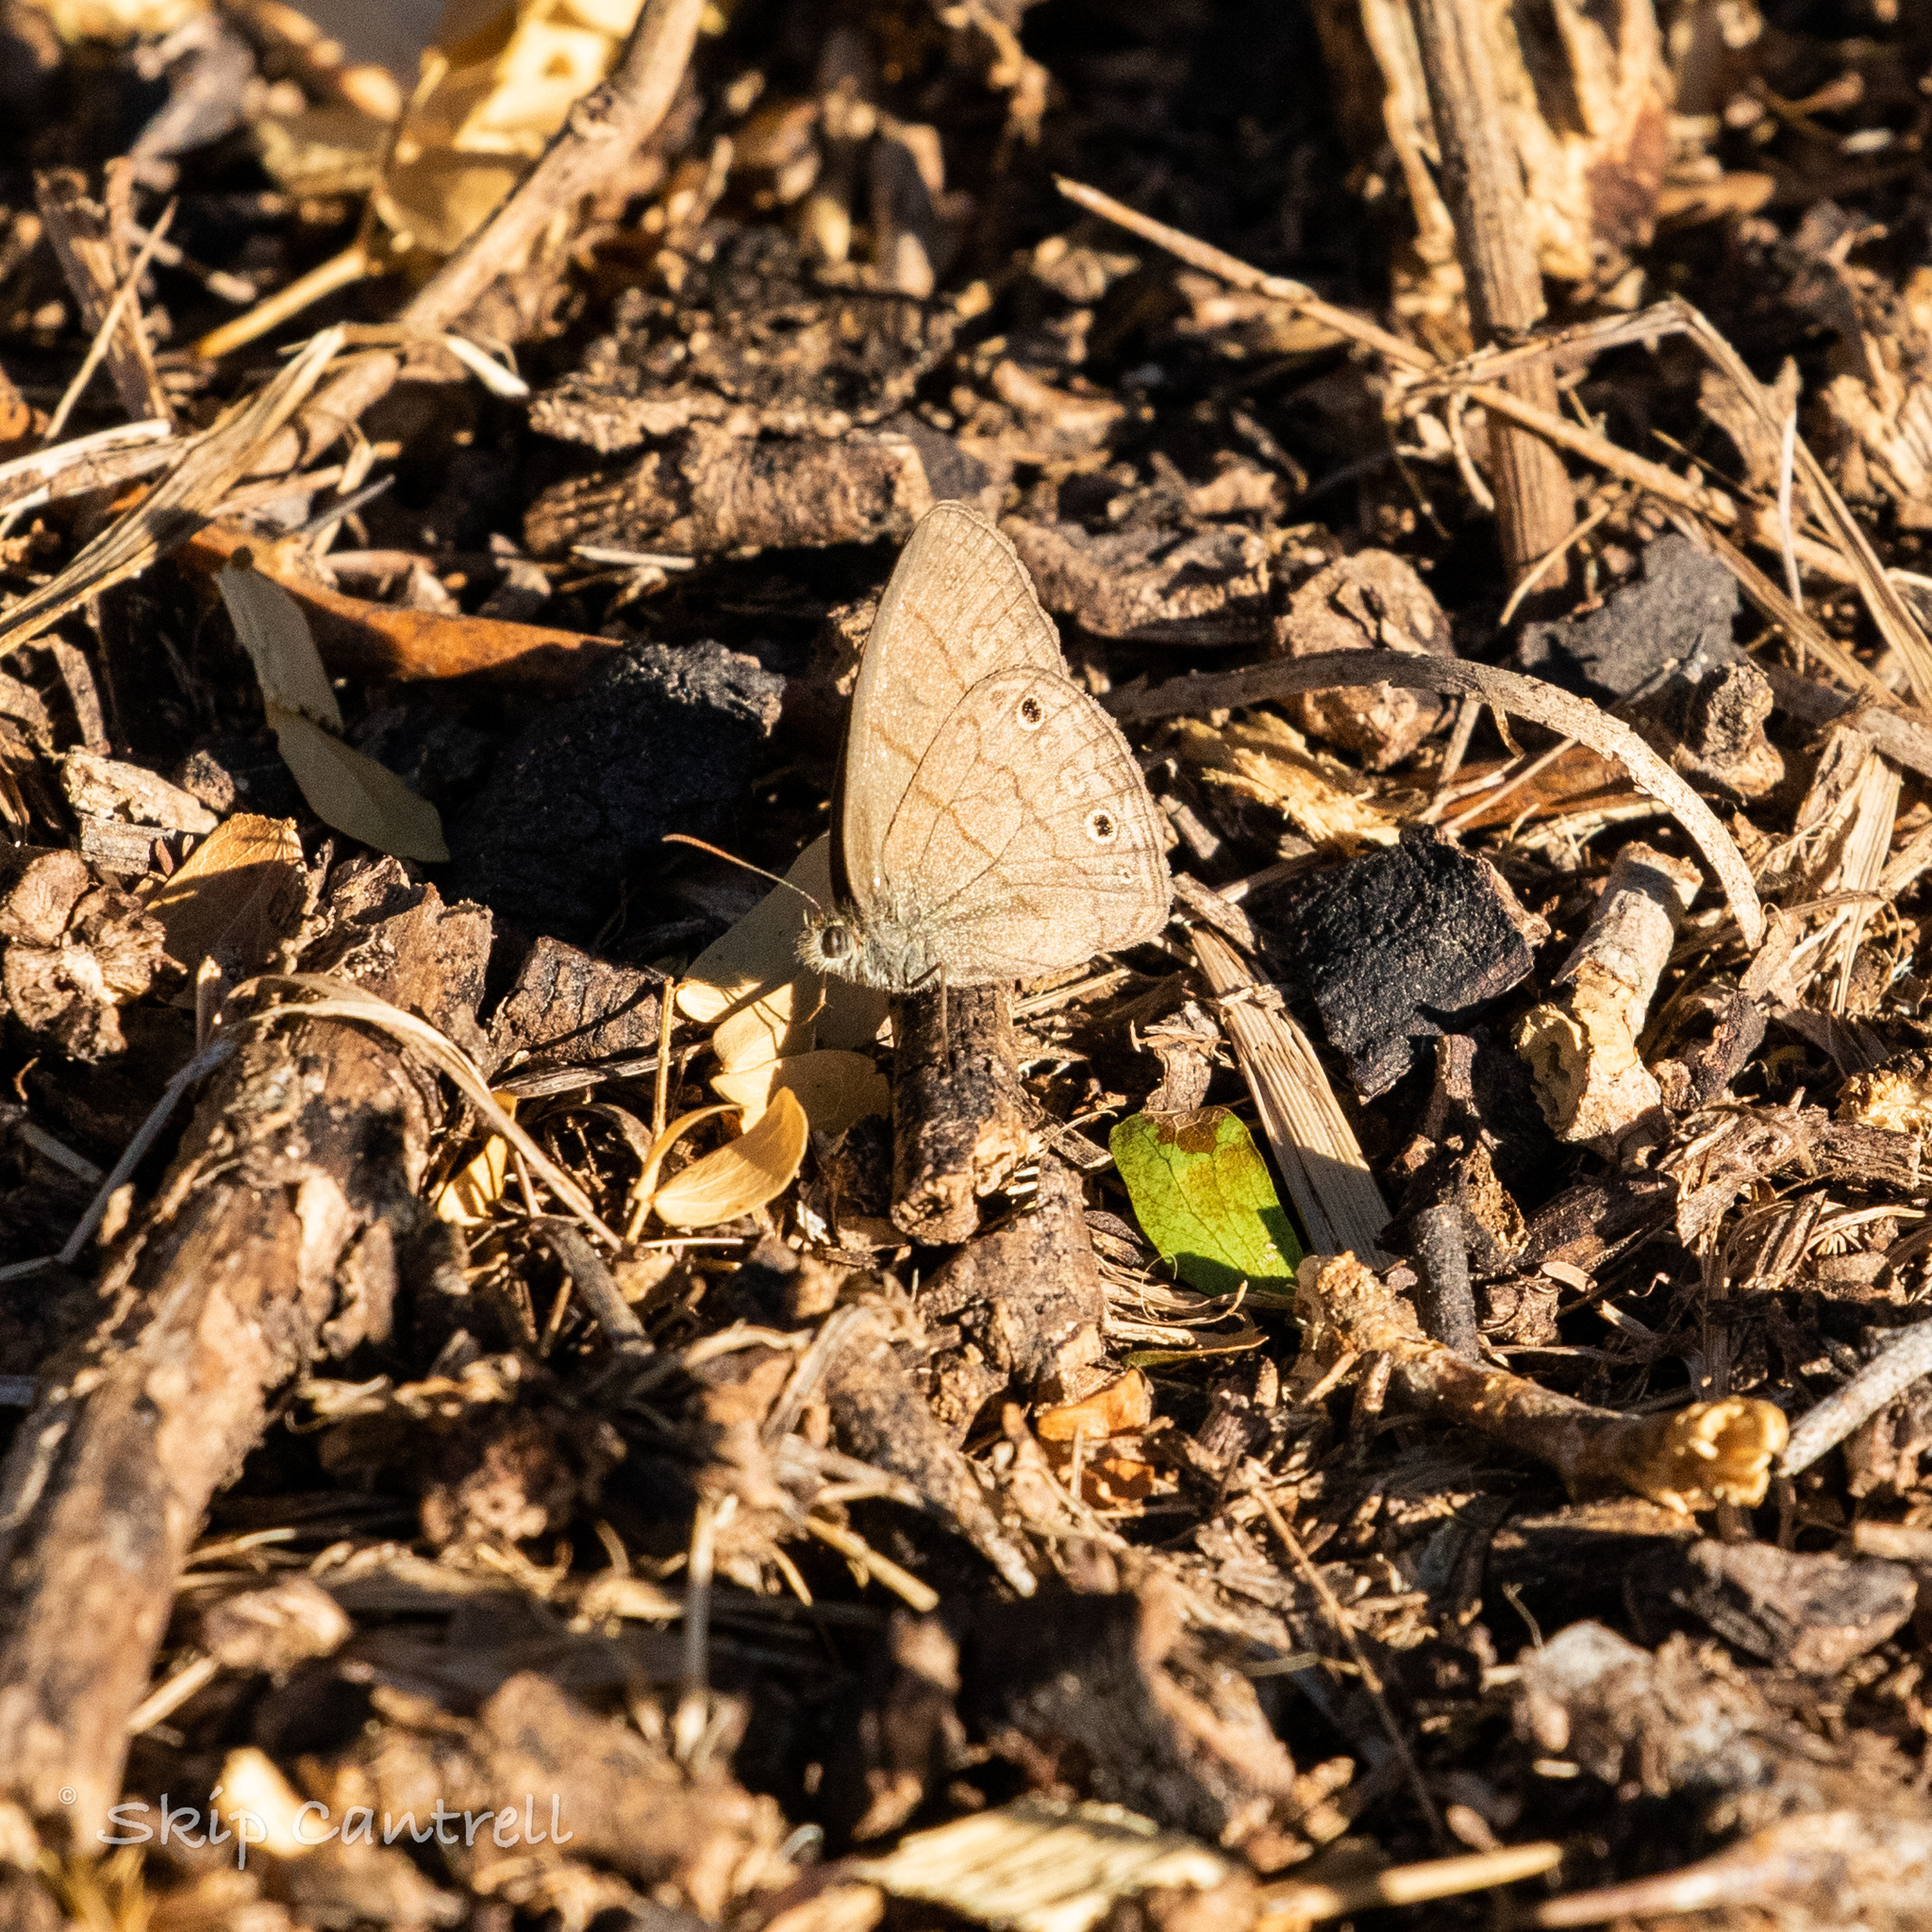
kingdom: Animalia
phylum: Arthropoda
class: Insecta
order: Lepidoptera
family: Nymphalidae
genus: Hermeuptychia
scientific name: Hermeuptychia hermybius
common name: South texas satyr
